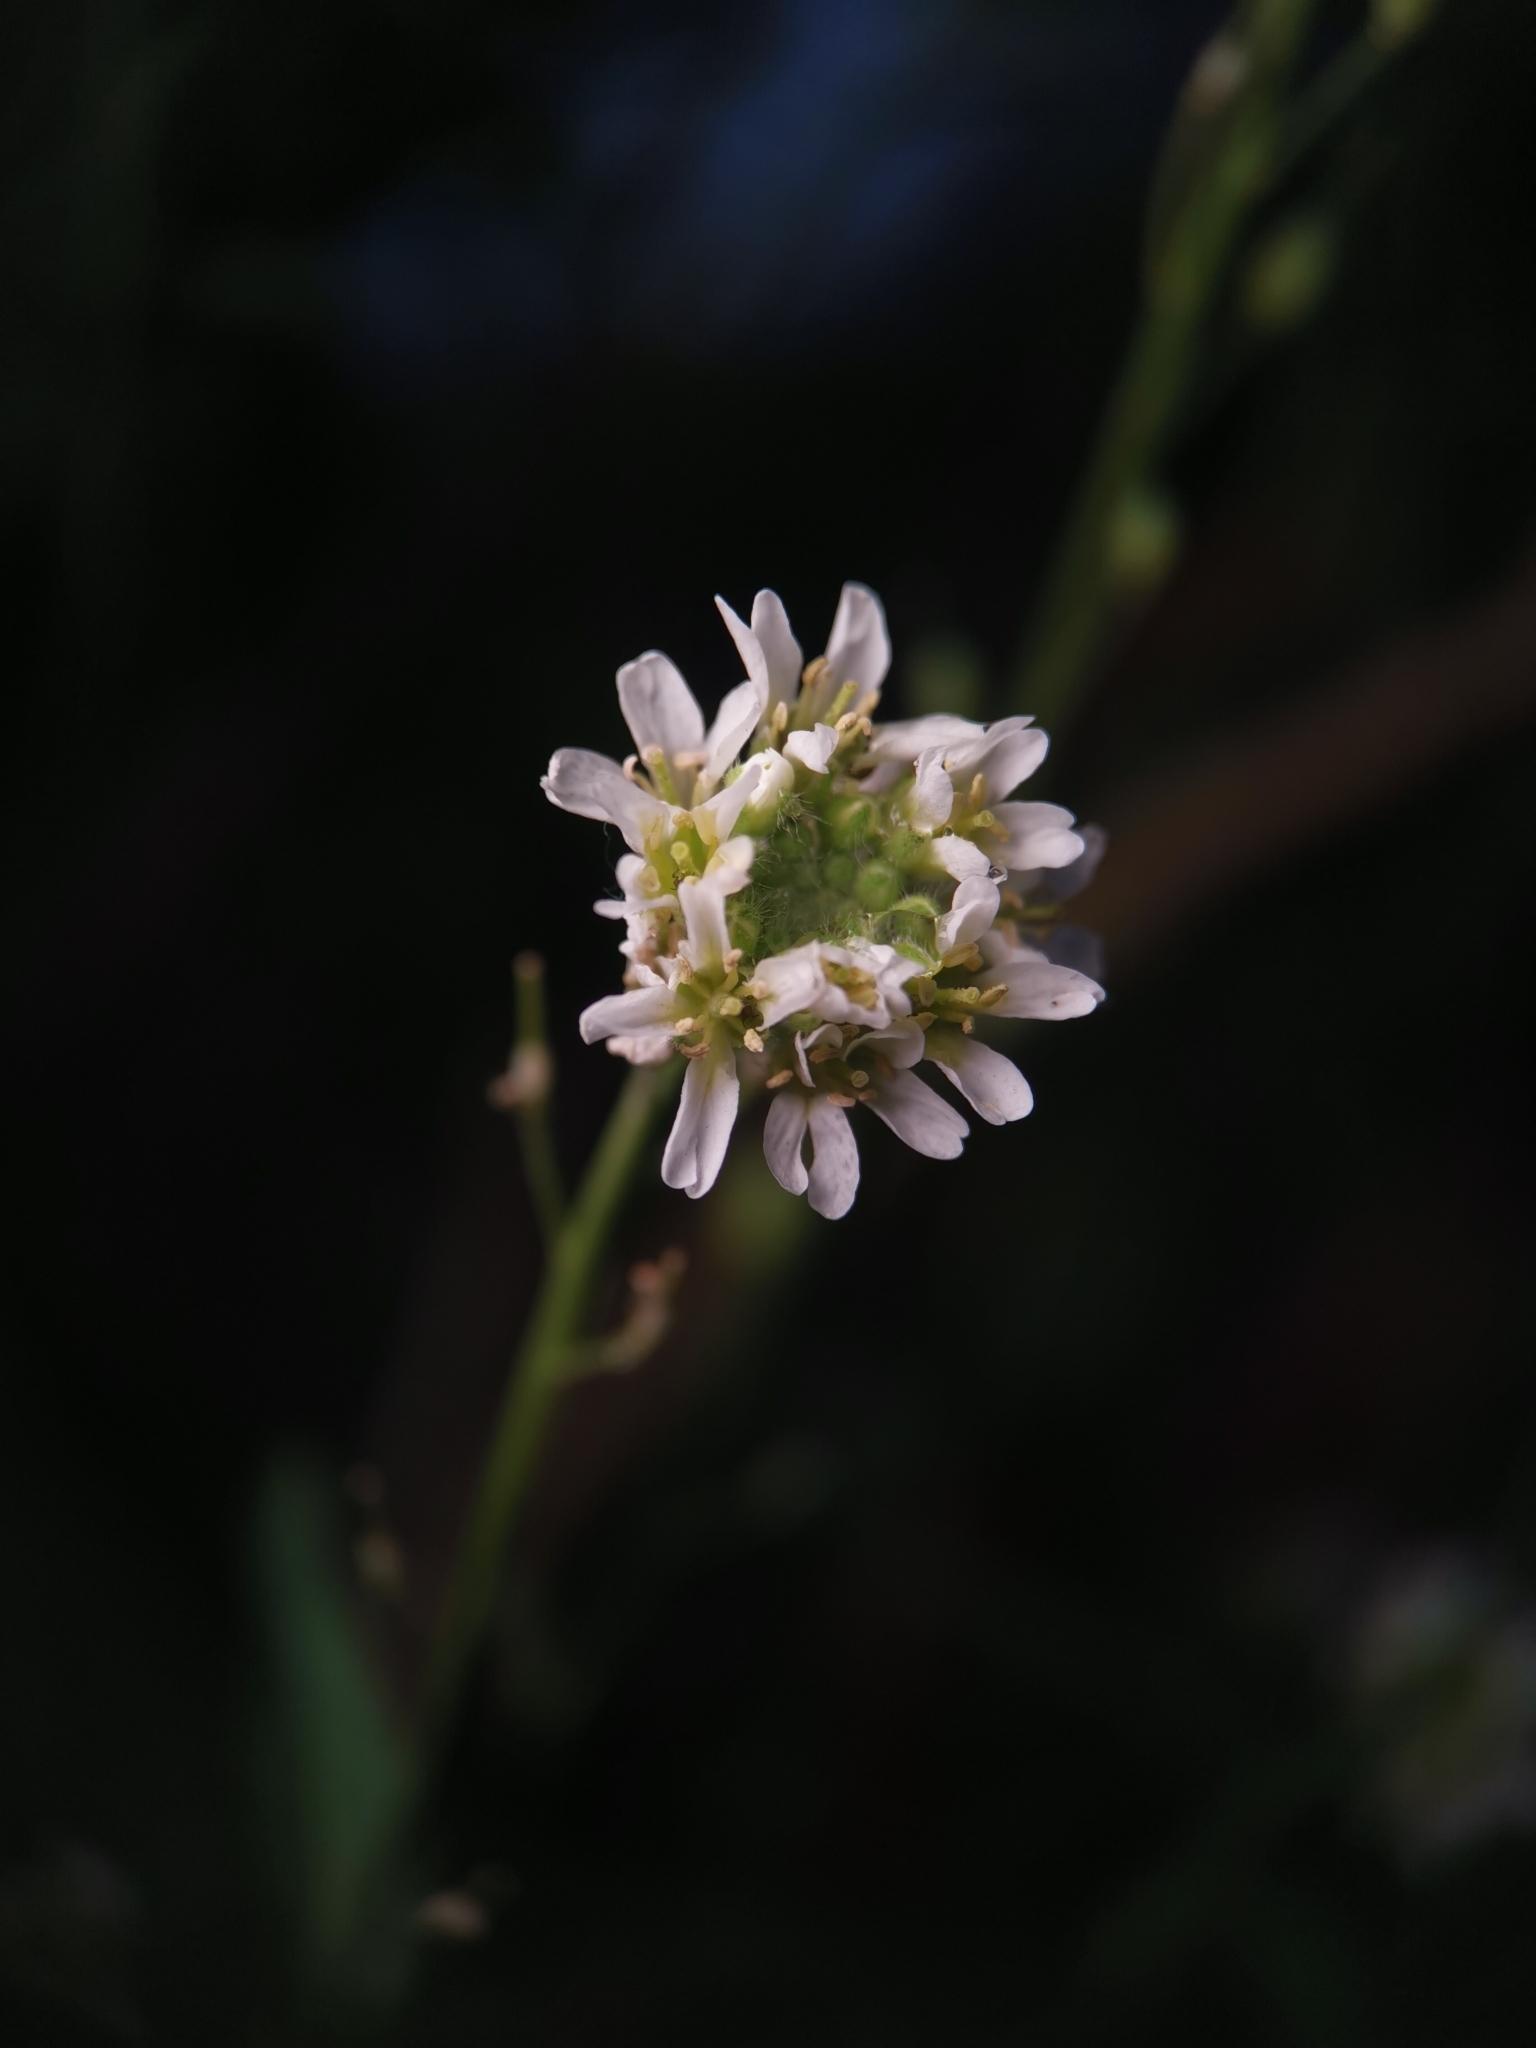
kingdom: Plantae
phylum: Tracheophyta
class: Magnoliopsida
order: Brassicales
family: Brassicaceae
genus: Berteroa
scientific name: Berteroa incana
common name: Hoary alison
